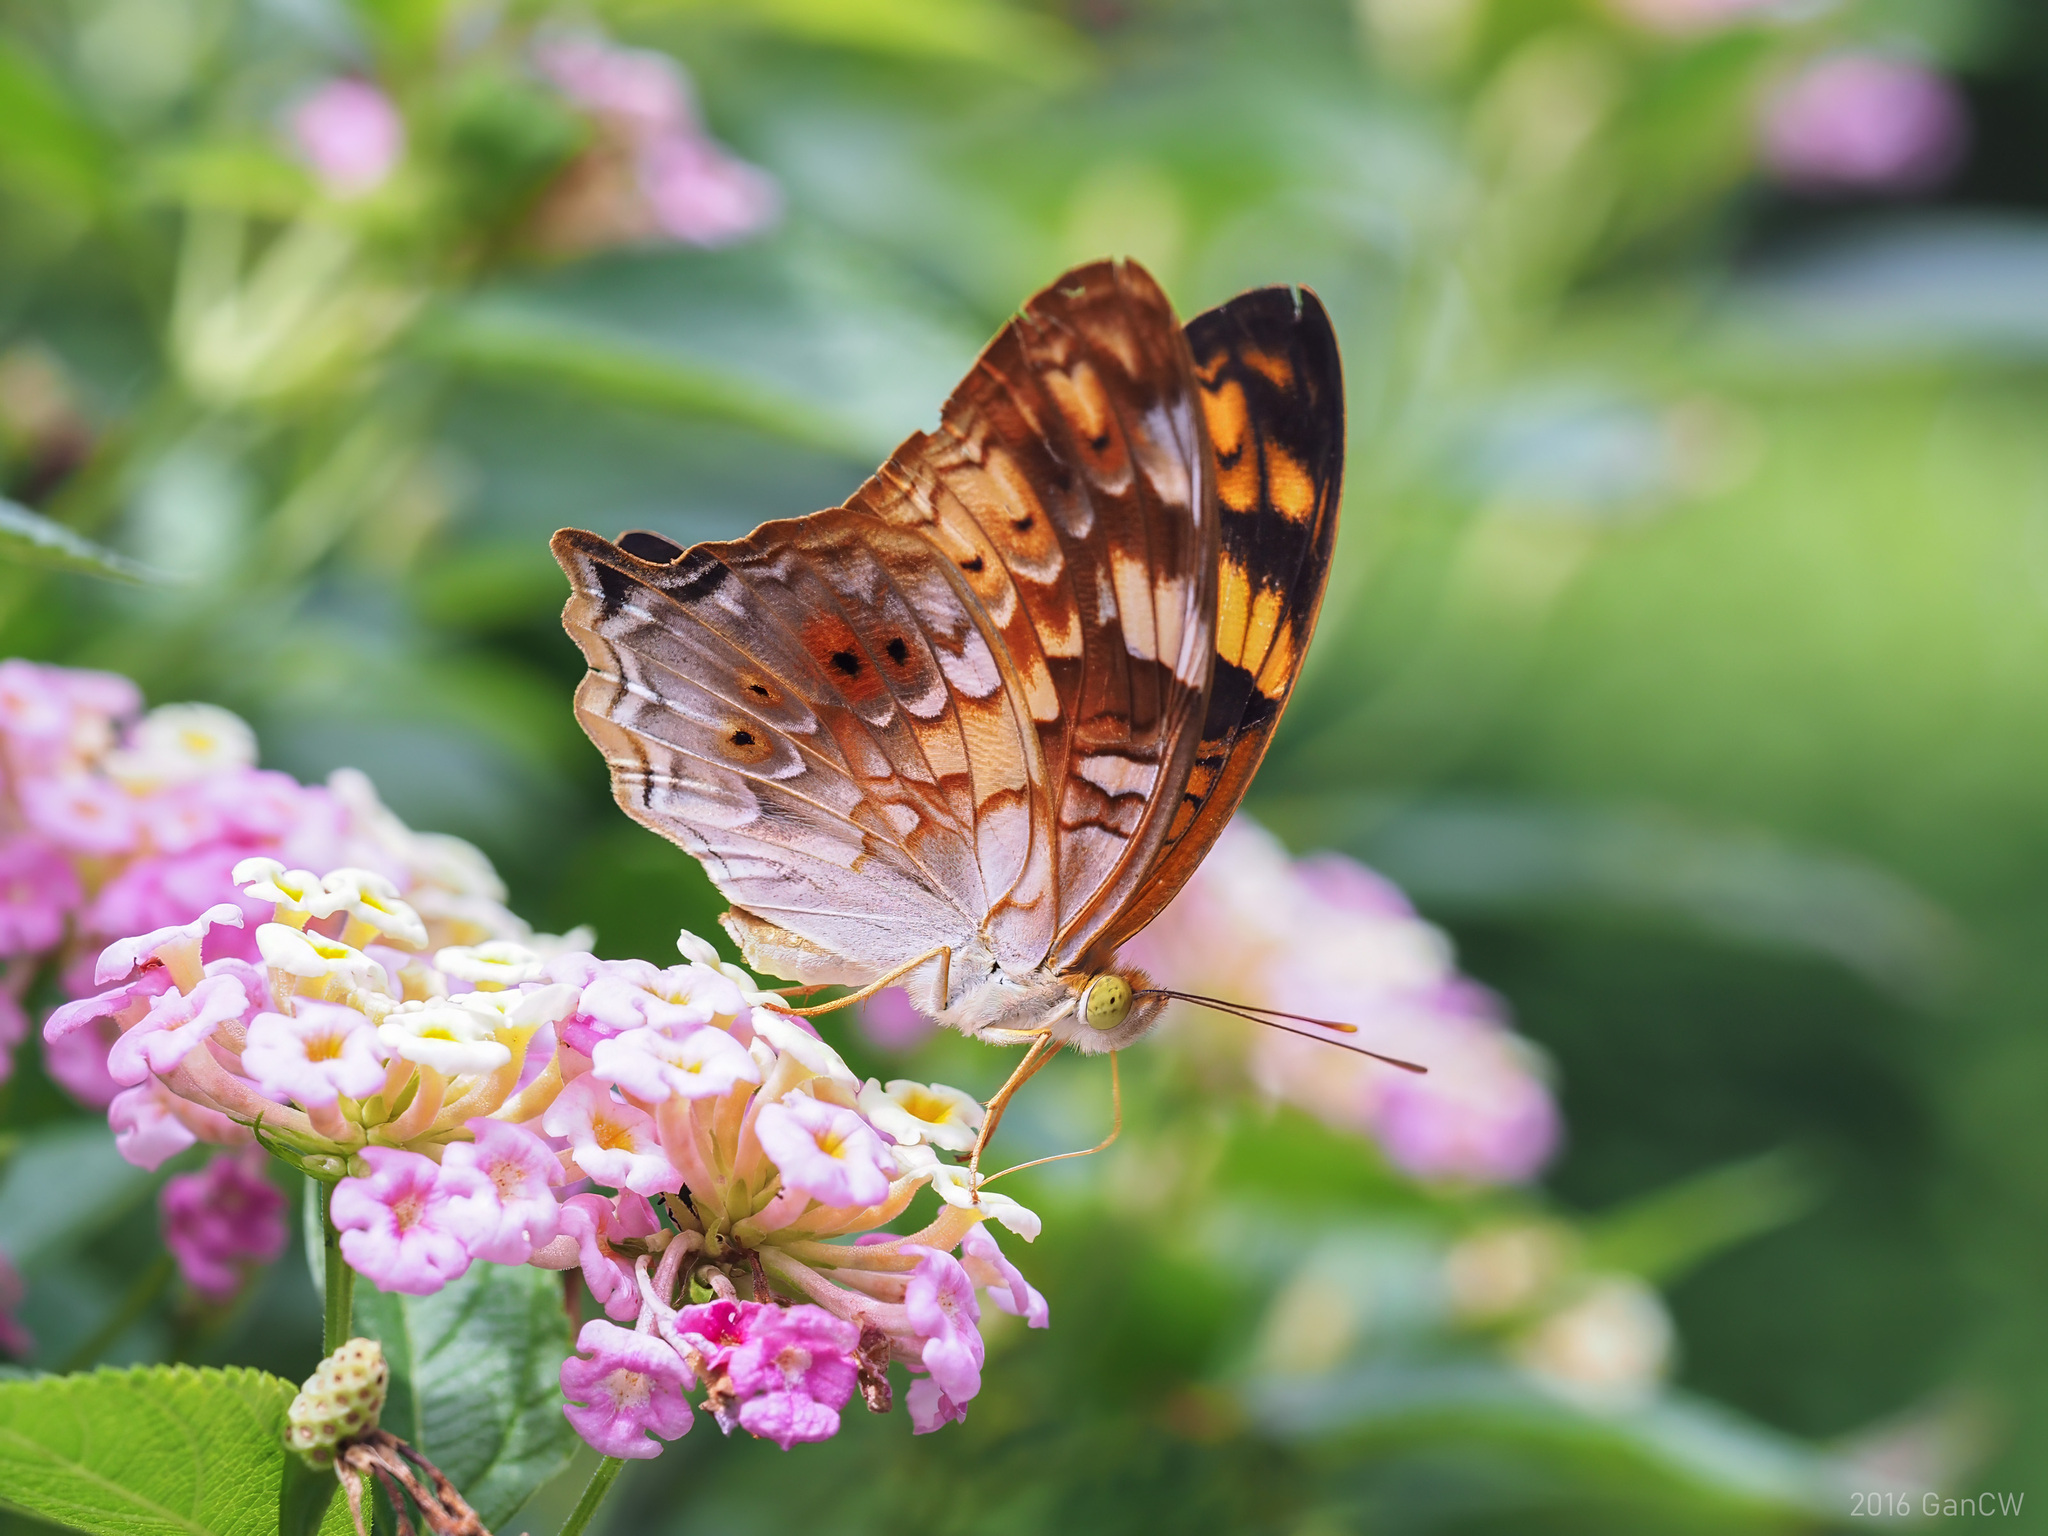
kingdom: Animalia
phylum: Arthropoda
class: Insecta
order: Lepidoptera
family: Nymphalidae
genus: Vagrans
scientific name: Vagrans egista
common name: Tailed rustic
